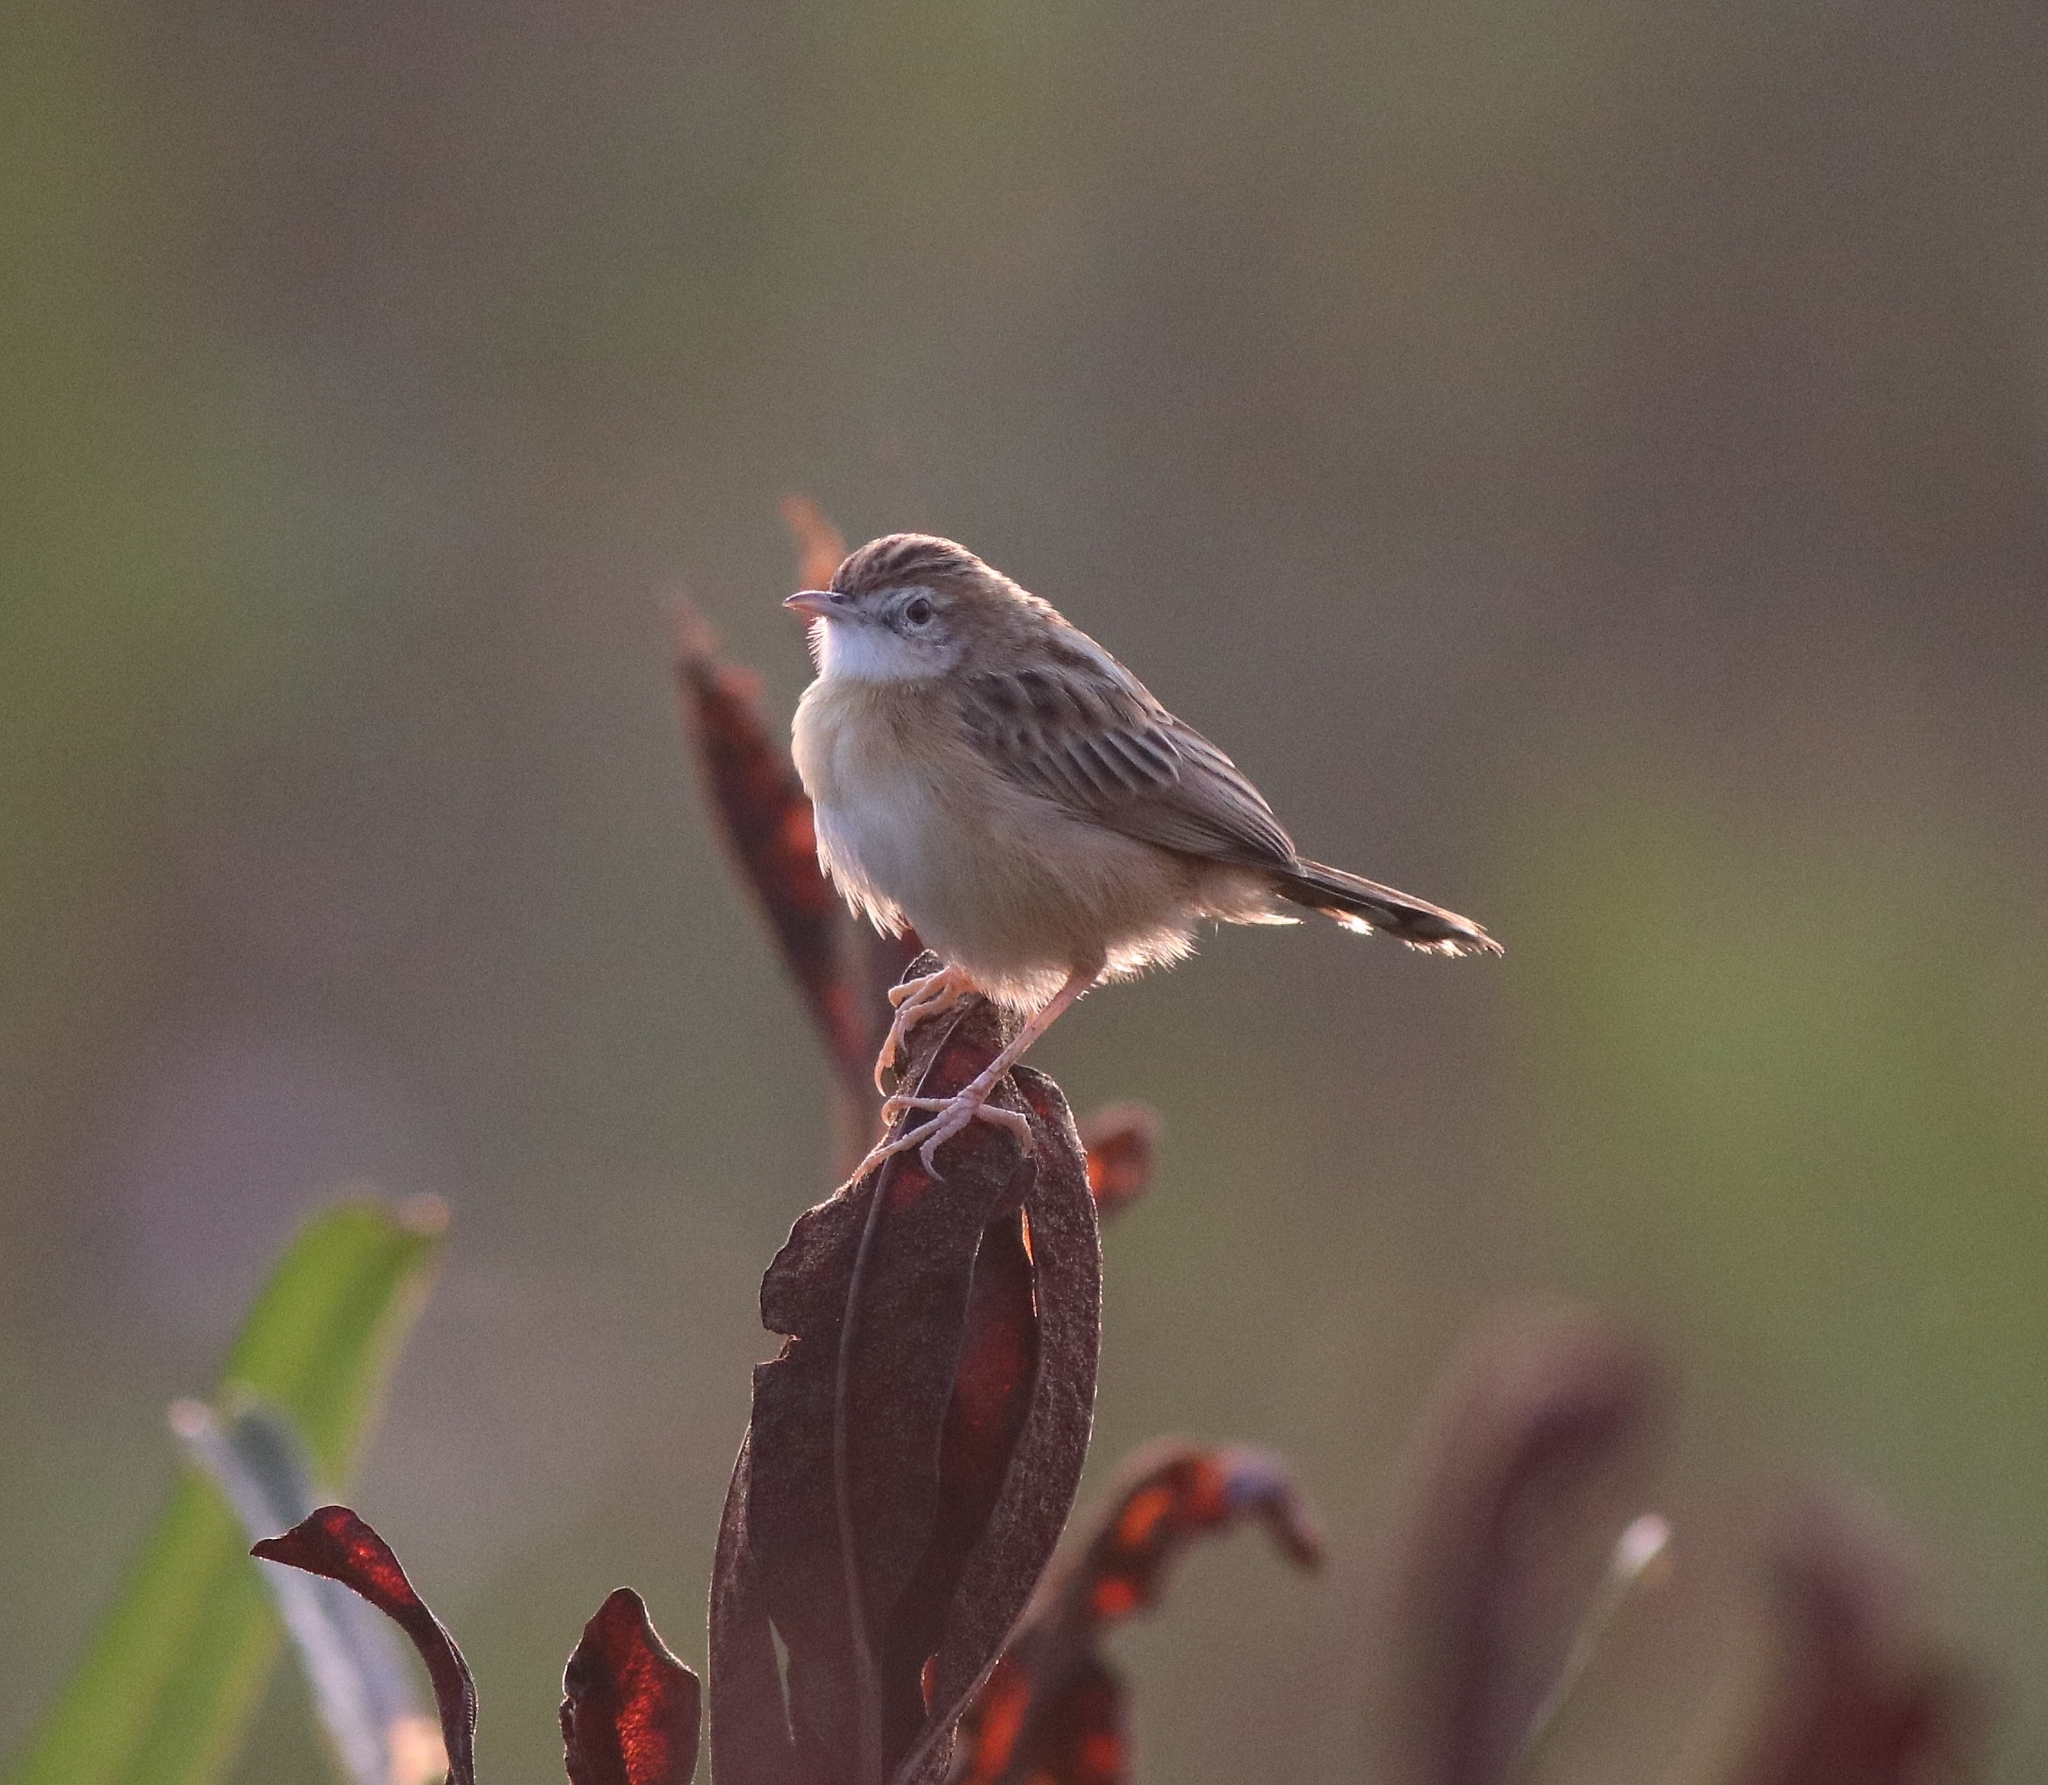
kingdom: Animalia
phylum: Chordata
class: Aves
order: Passeriformes
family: Cisticolidae
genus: Cisticola
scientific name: Cisticola juncidis
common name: Zitting cisticola
